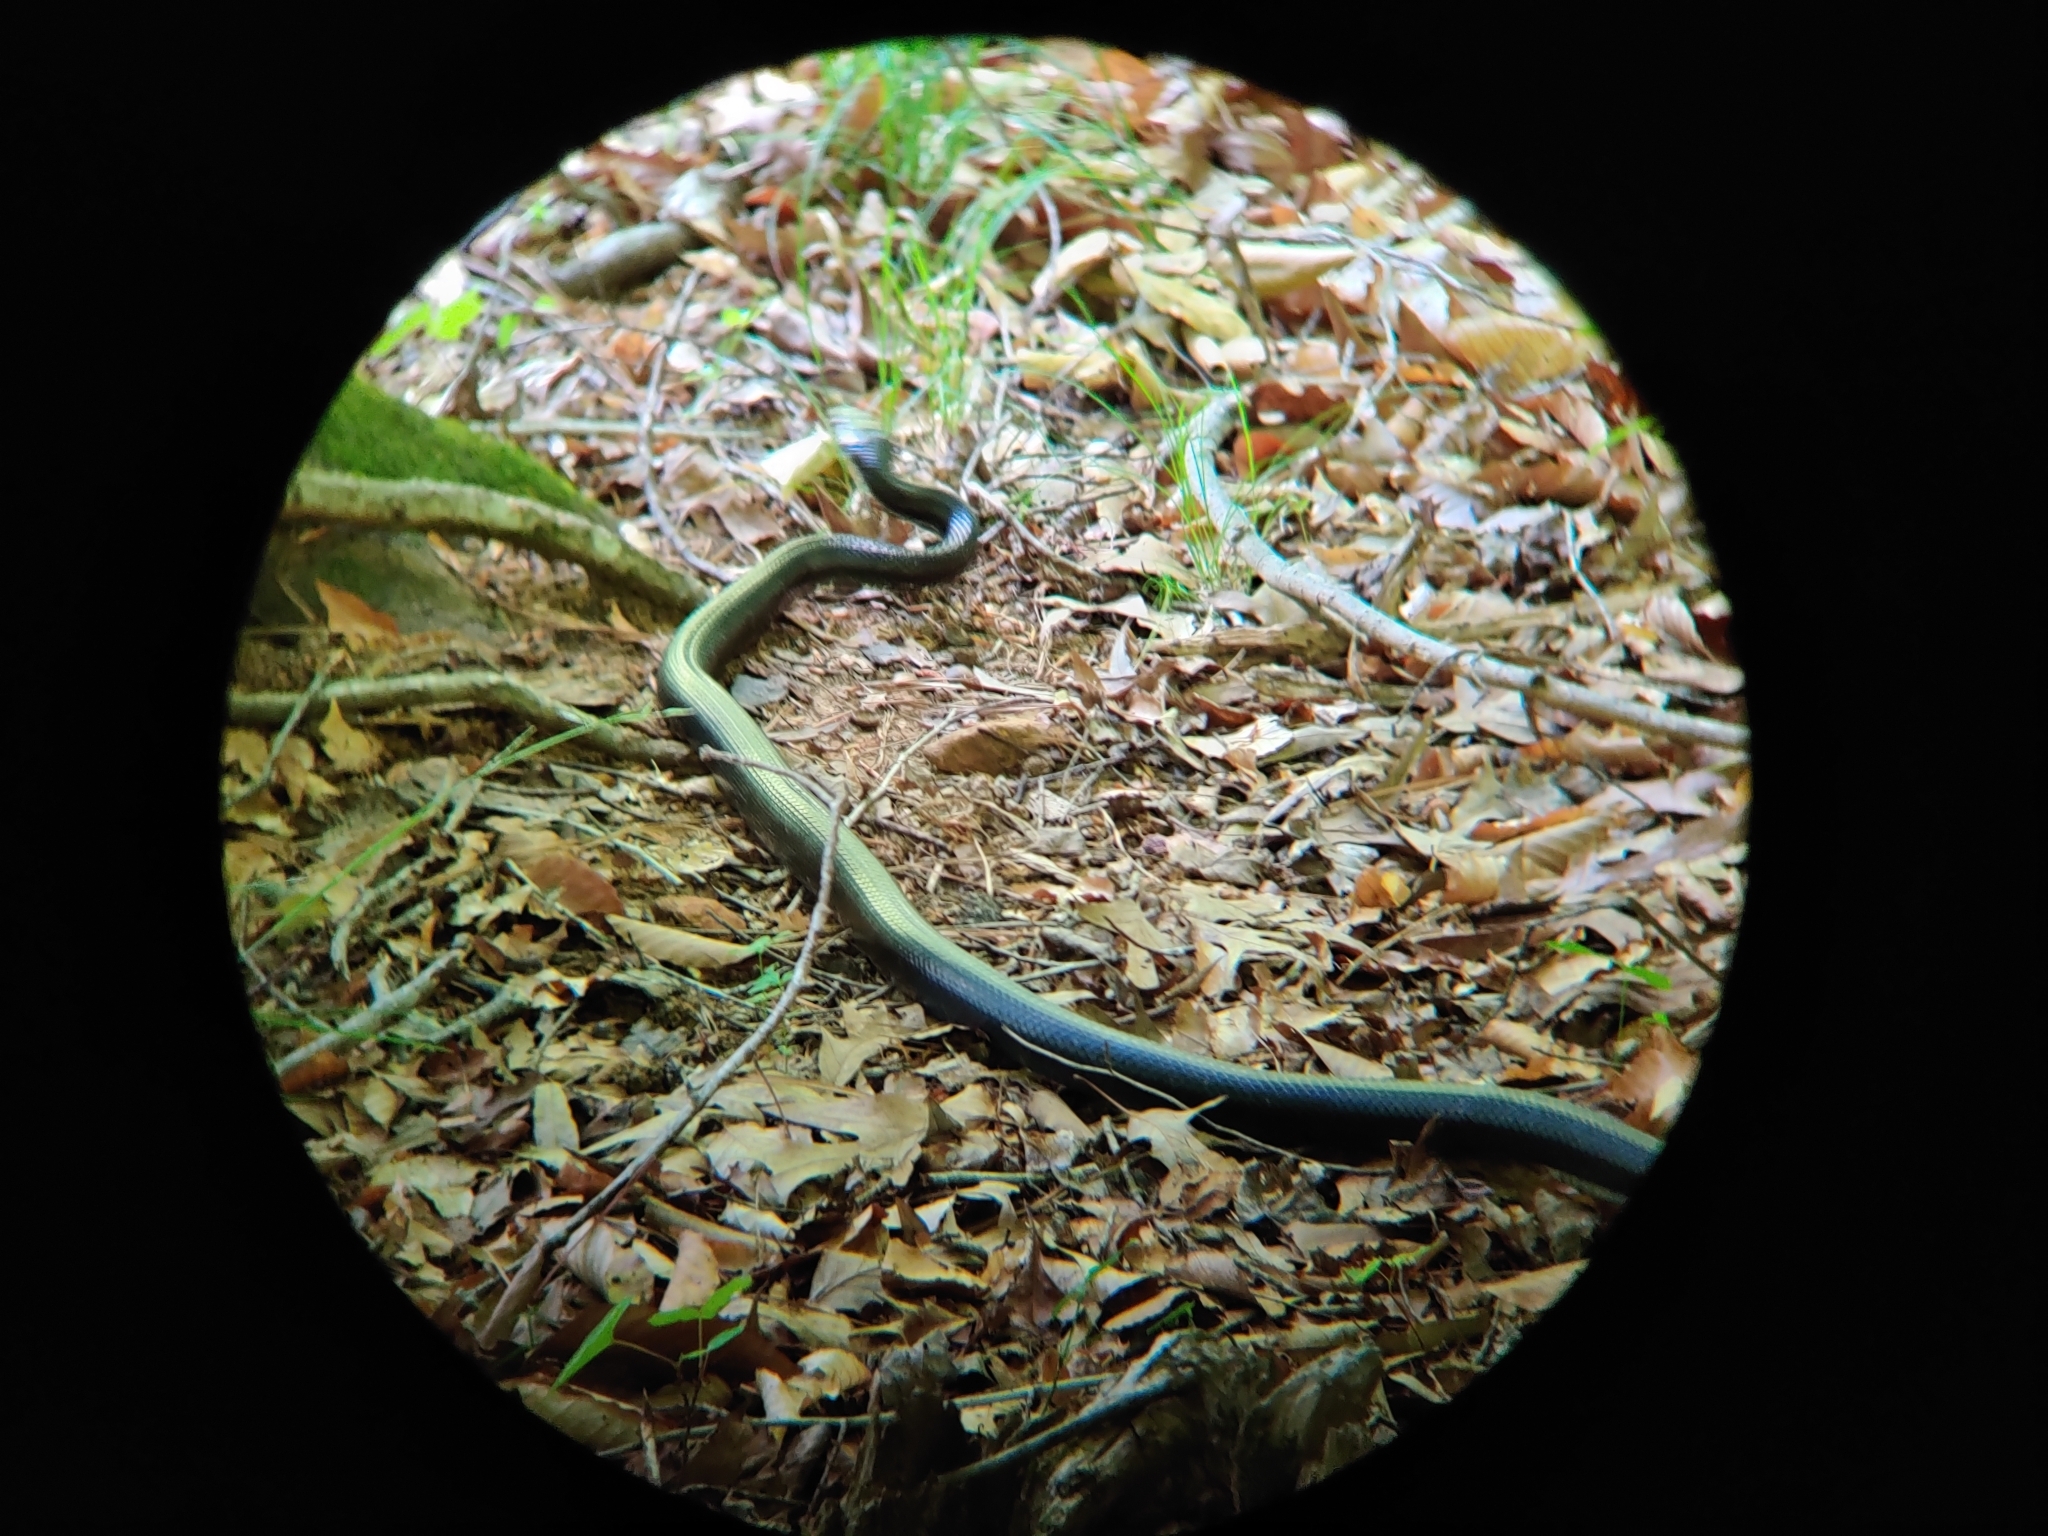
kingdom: Animalia
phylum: Chordata
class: Squamata
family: Colubridae
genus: Pantherophis
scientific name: Pantherophis alleghaniensis
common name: Eastern rat snake
